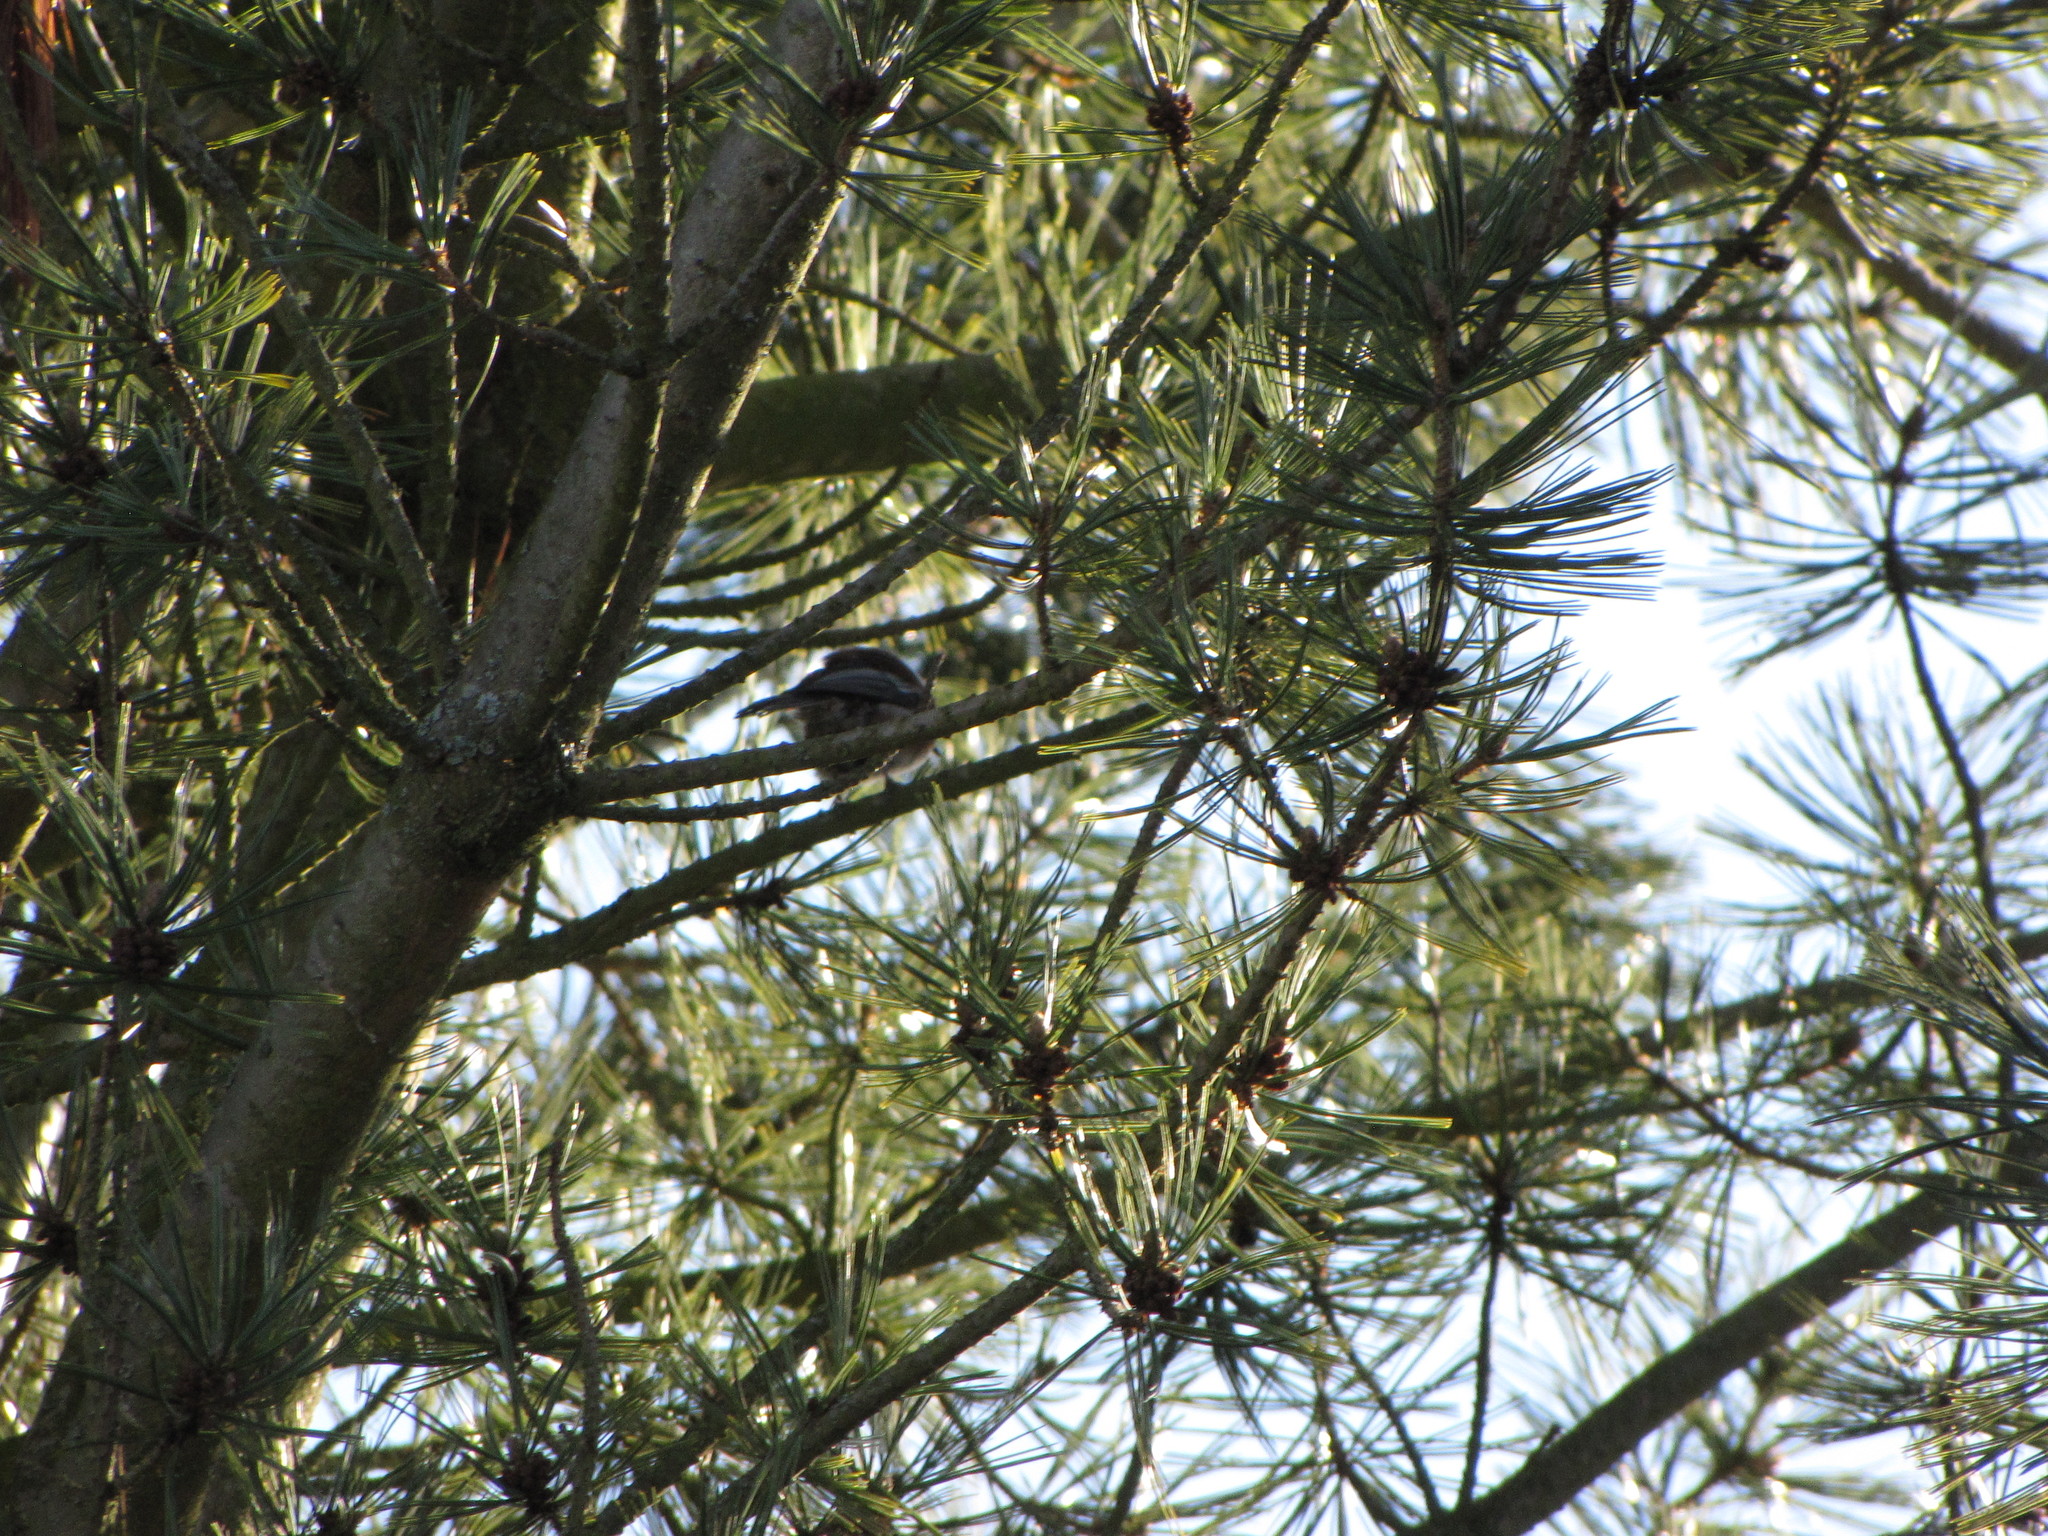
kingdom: Animalia
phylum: Chordata
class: Aves
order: Passeriformes
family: Paridae
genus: Poecile
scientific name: Poecile rufescens
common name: Chestnut-backed chickadee
